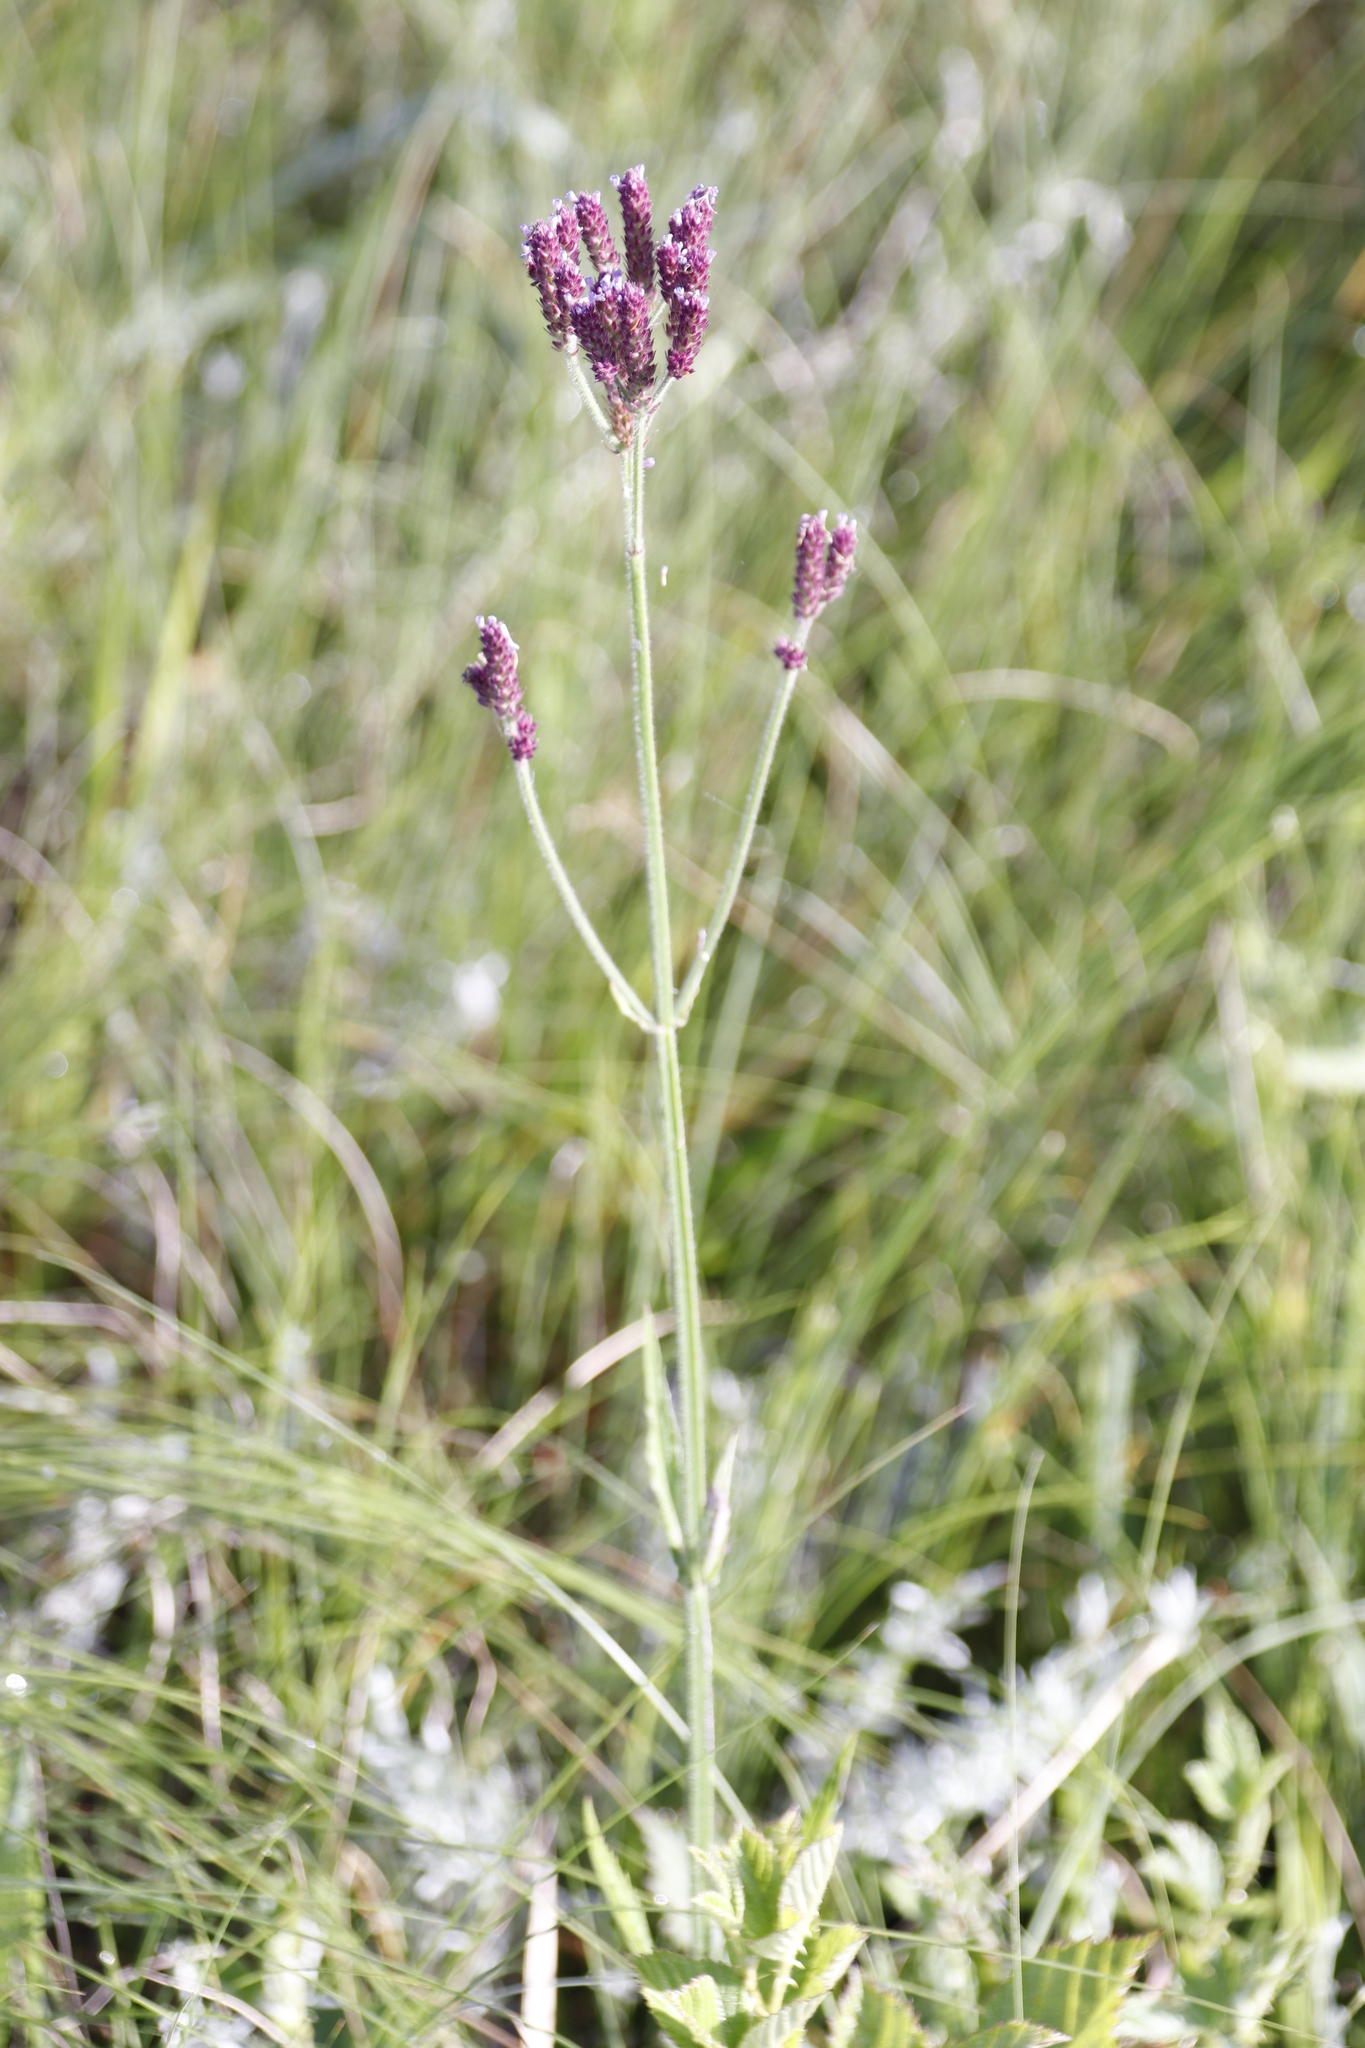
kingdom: Plantae
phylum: Tracheophyta
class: Magnoliopsida
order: Lamiales
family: Verbenaceae
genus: Verbena
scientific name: Verbena bonariensis
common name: Purpletop vervain
